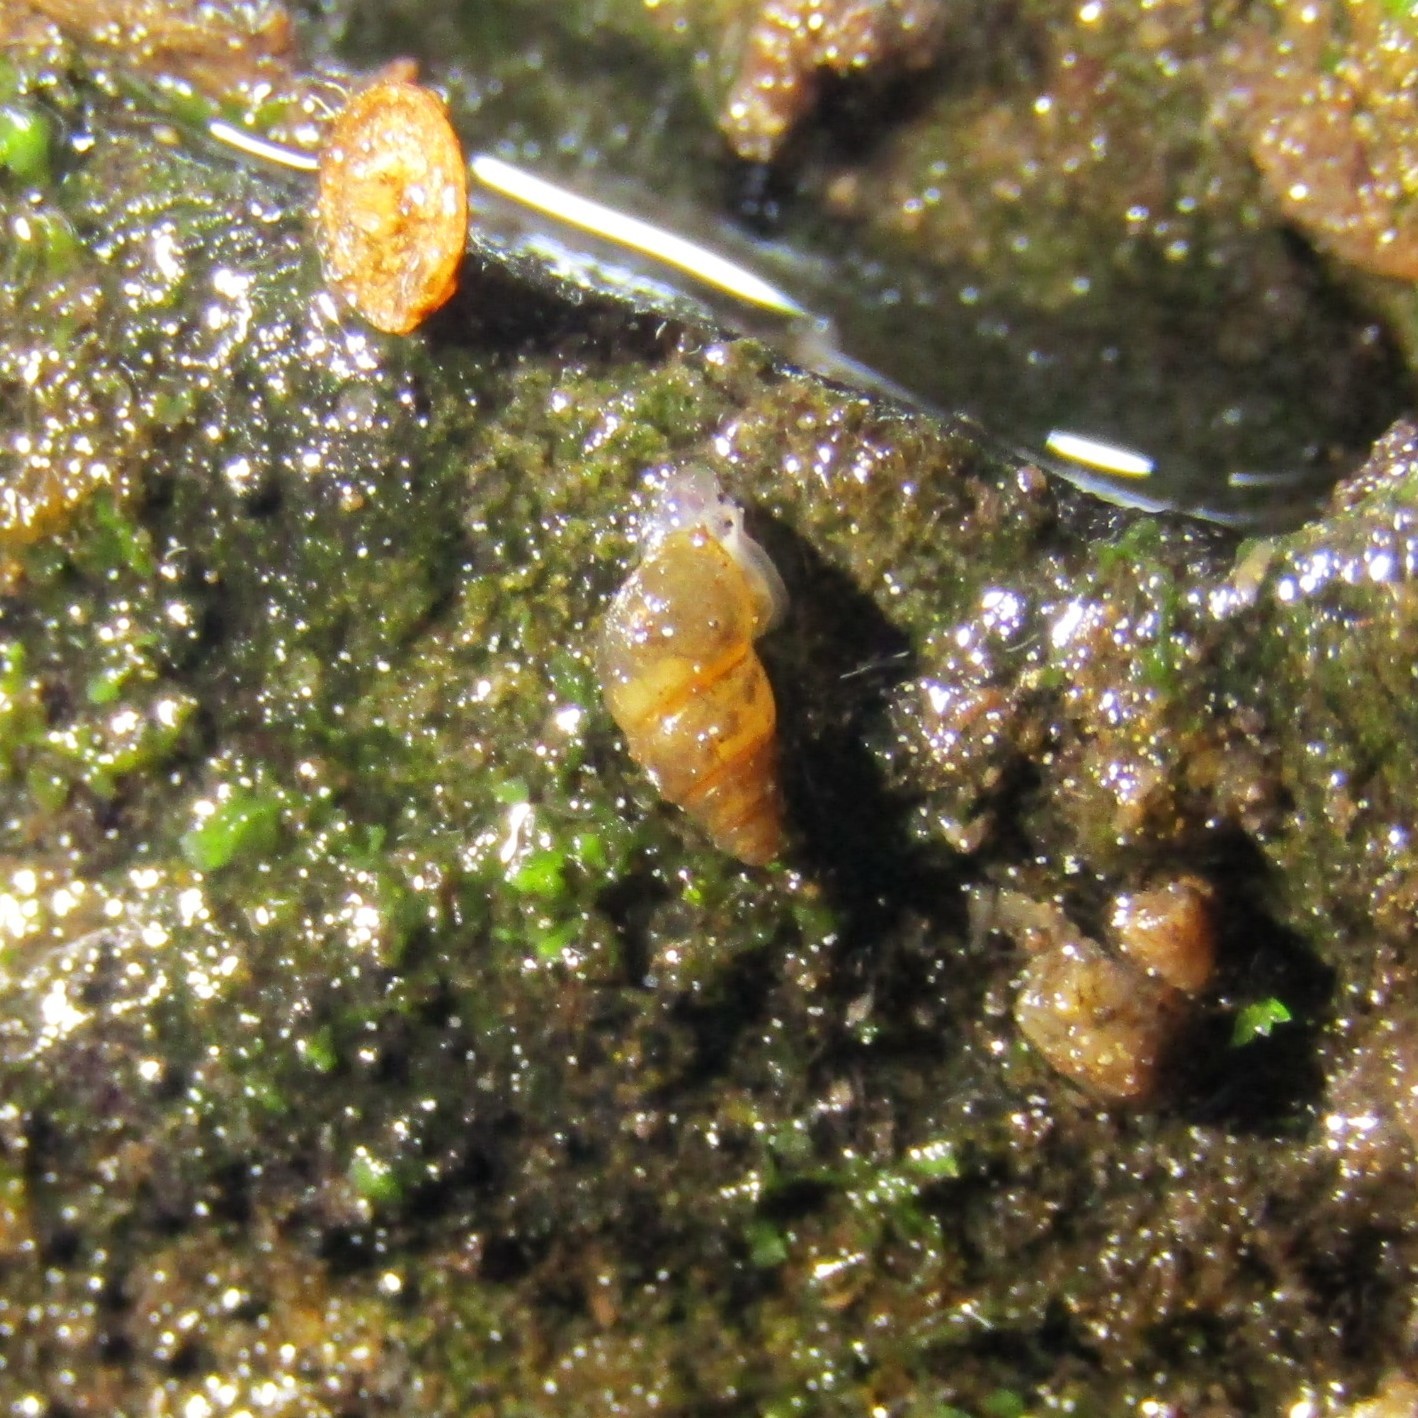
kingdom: Animalia
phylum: Mollusca
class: Gastropoda
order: Littorinimorpha
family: Tateidae
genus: Potamopyrgus
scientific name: Potamopyrgus antipodarum
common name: Jenkins' spire snail
